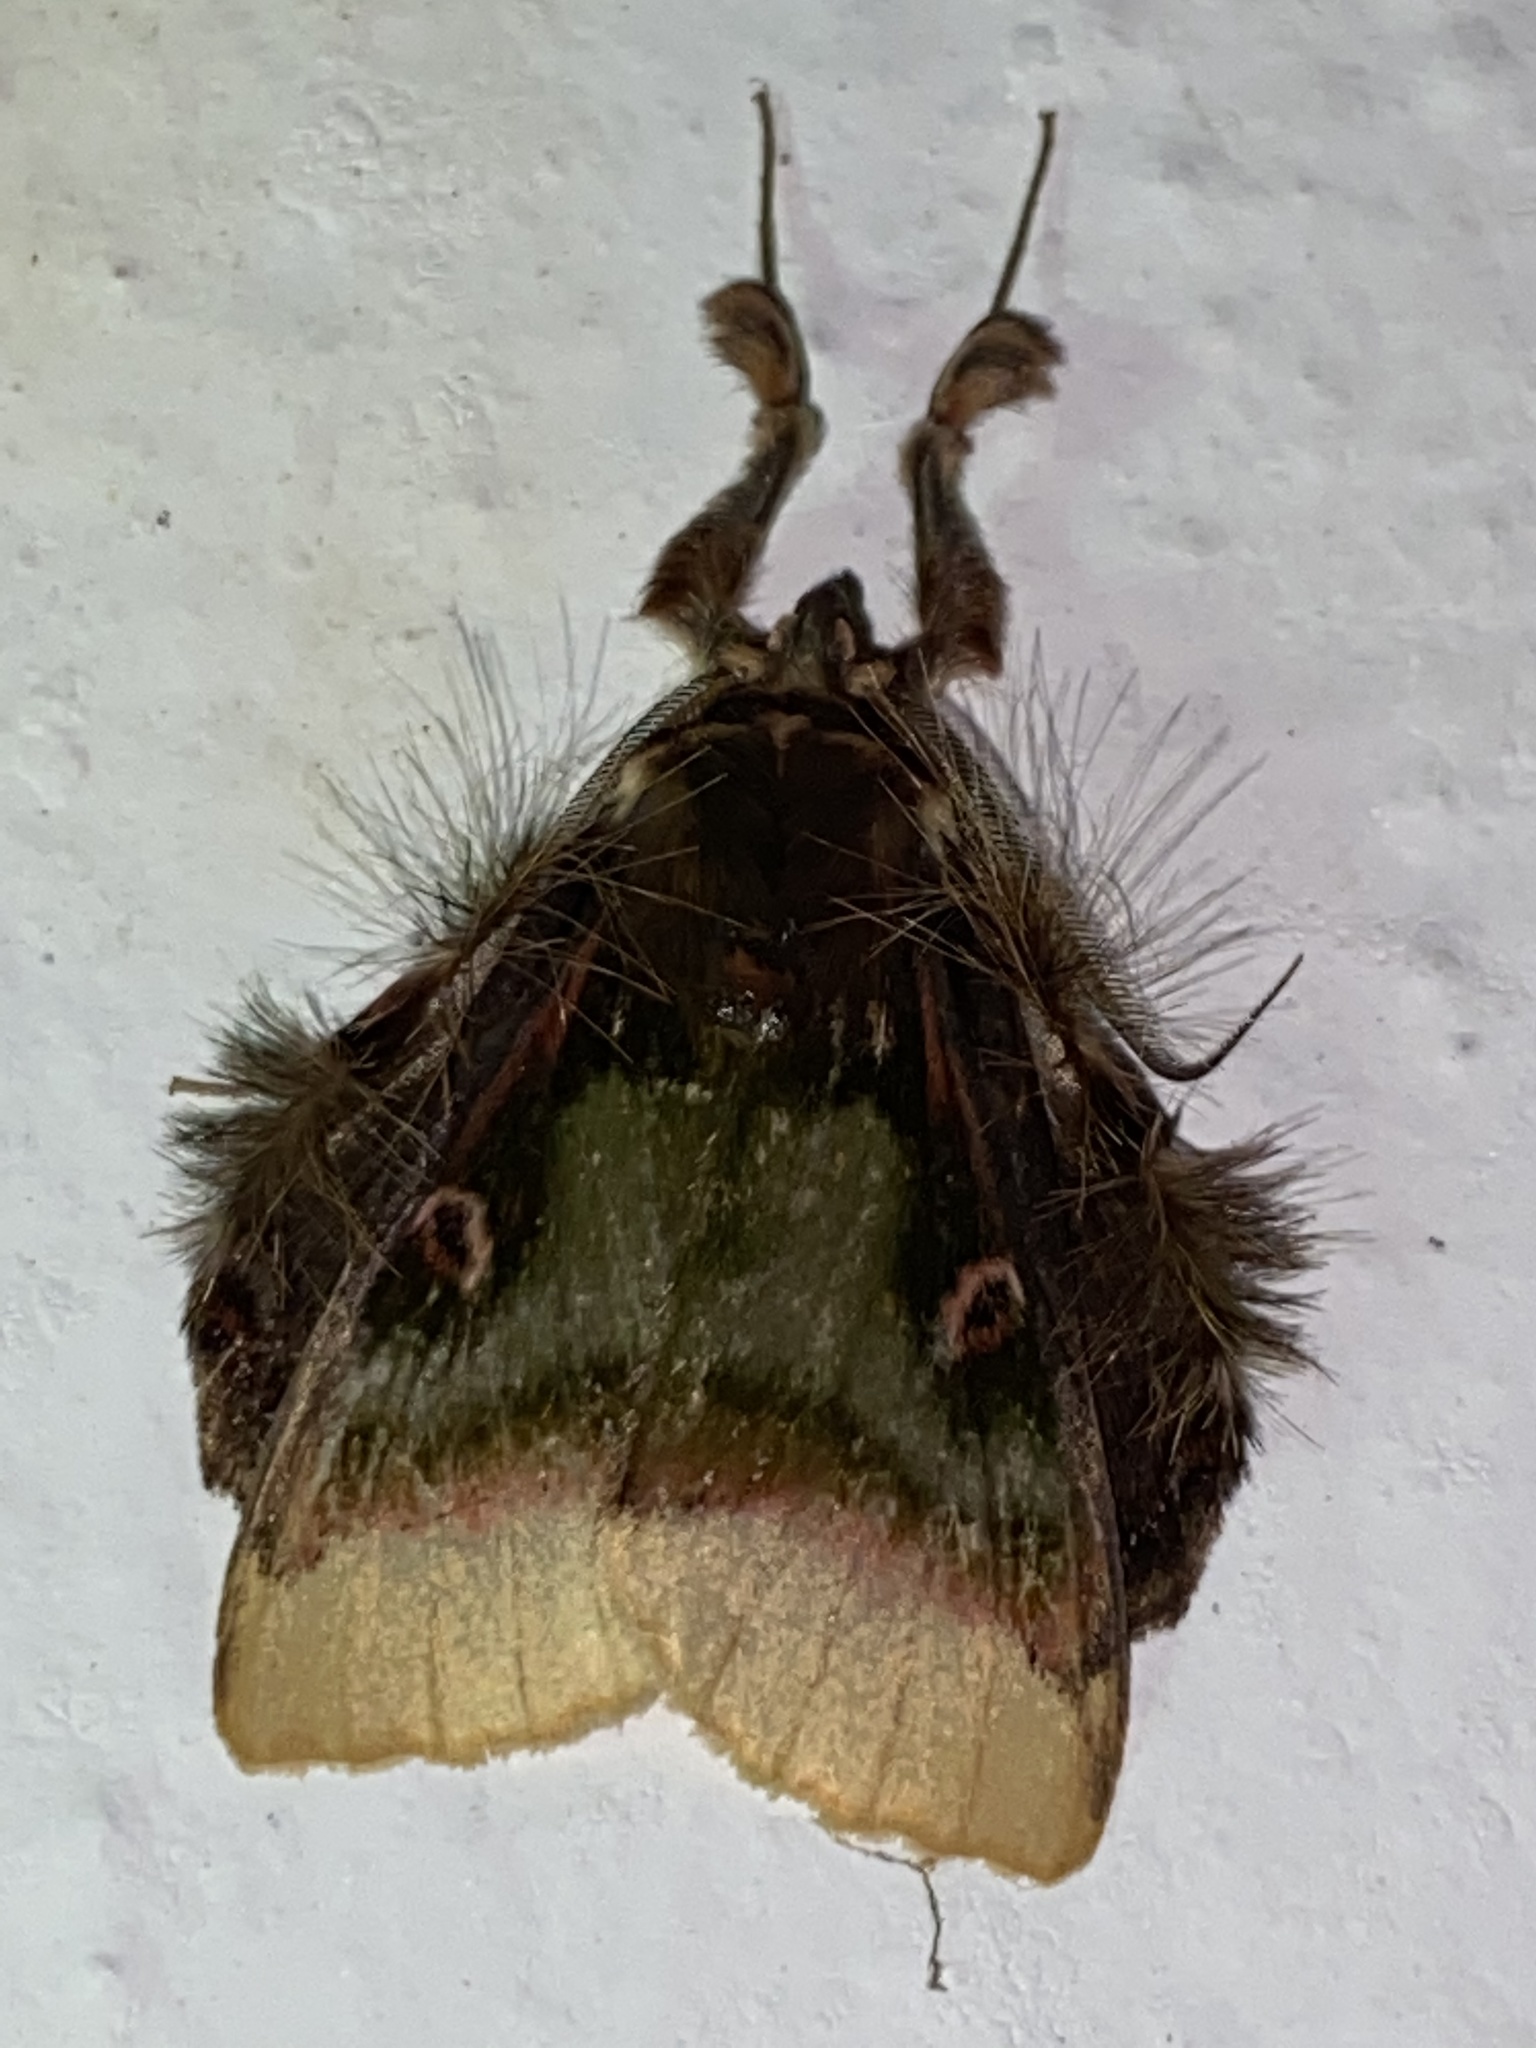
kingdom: Animalia
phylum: Arthropoda
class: Insecta
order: Lepidoptera
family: Erebidae
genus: Ceroctena
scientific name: Ceroctena amynta
